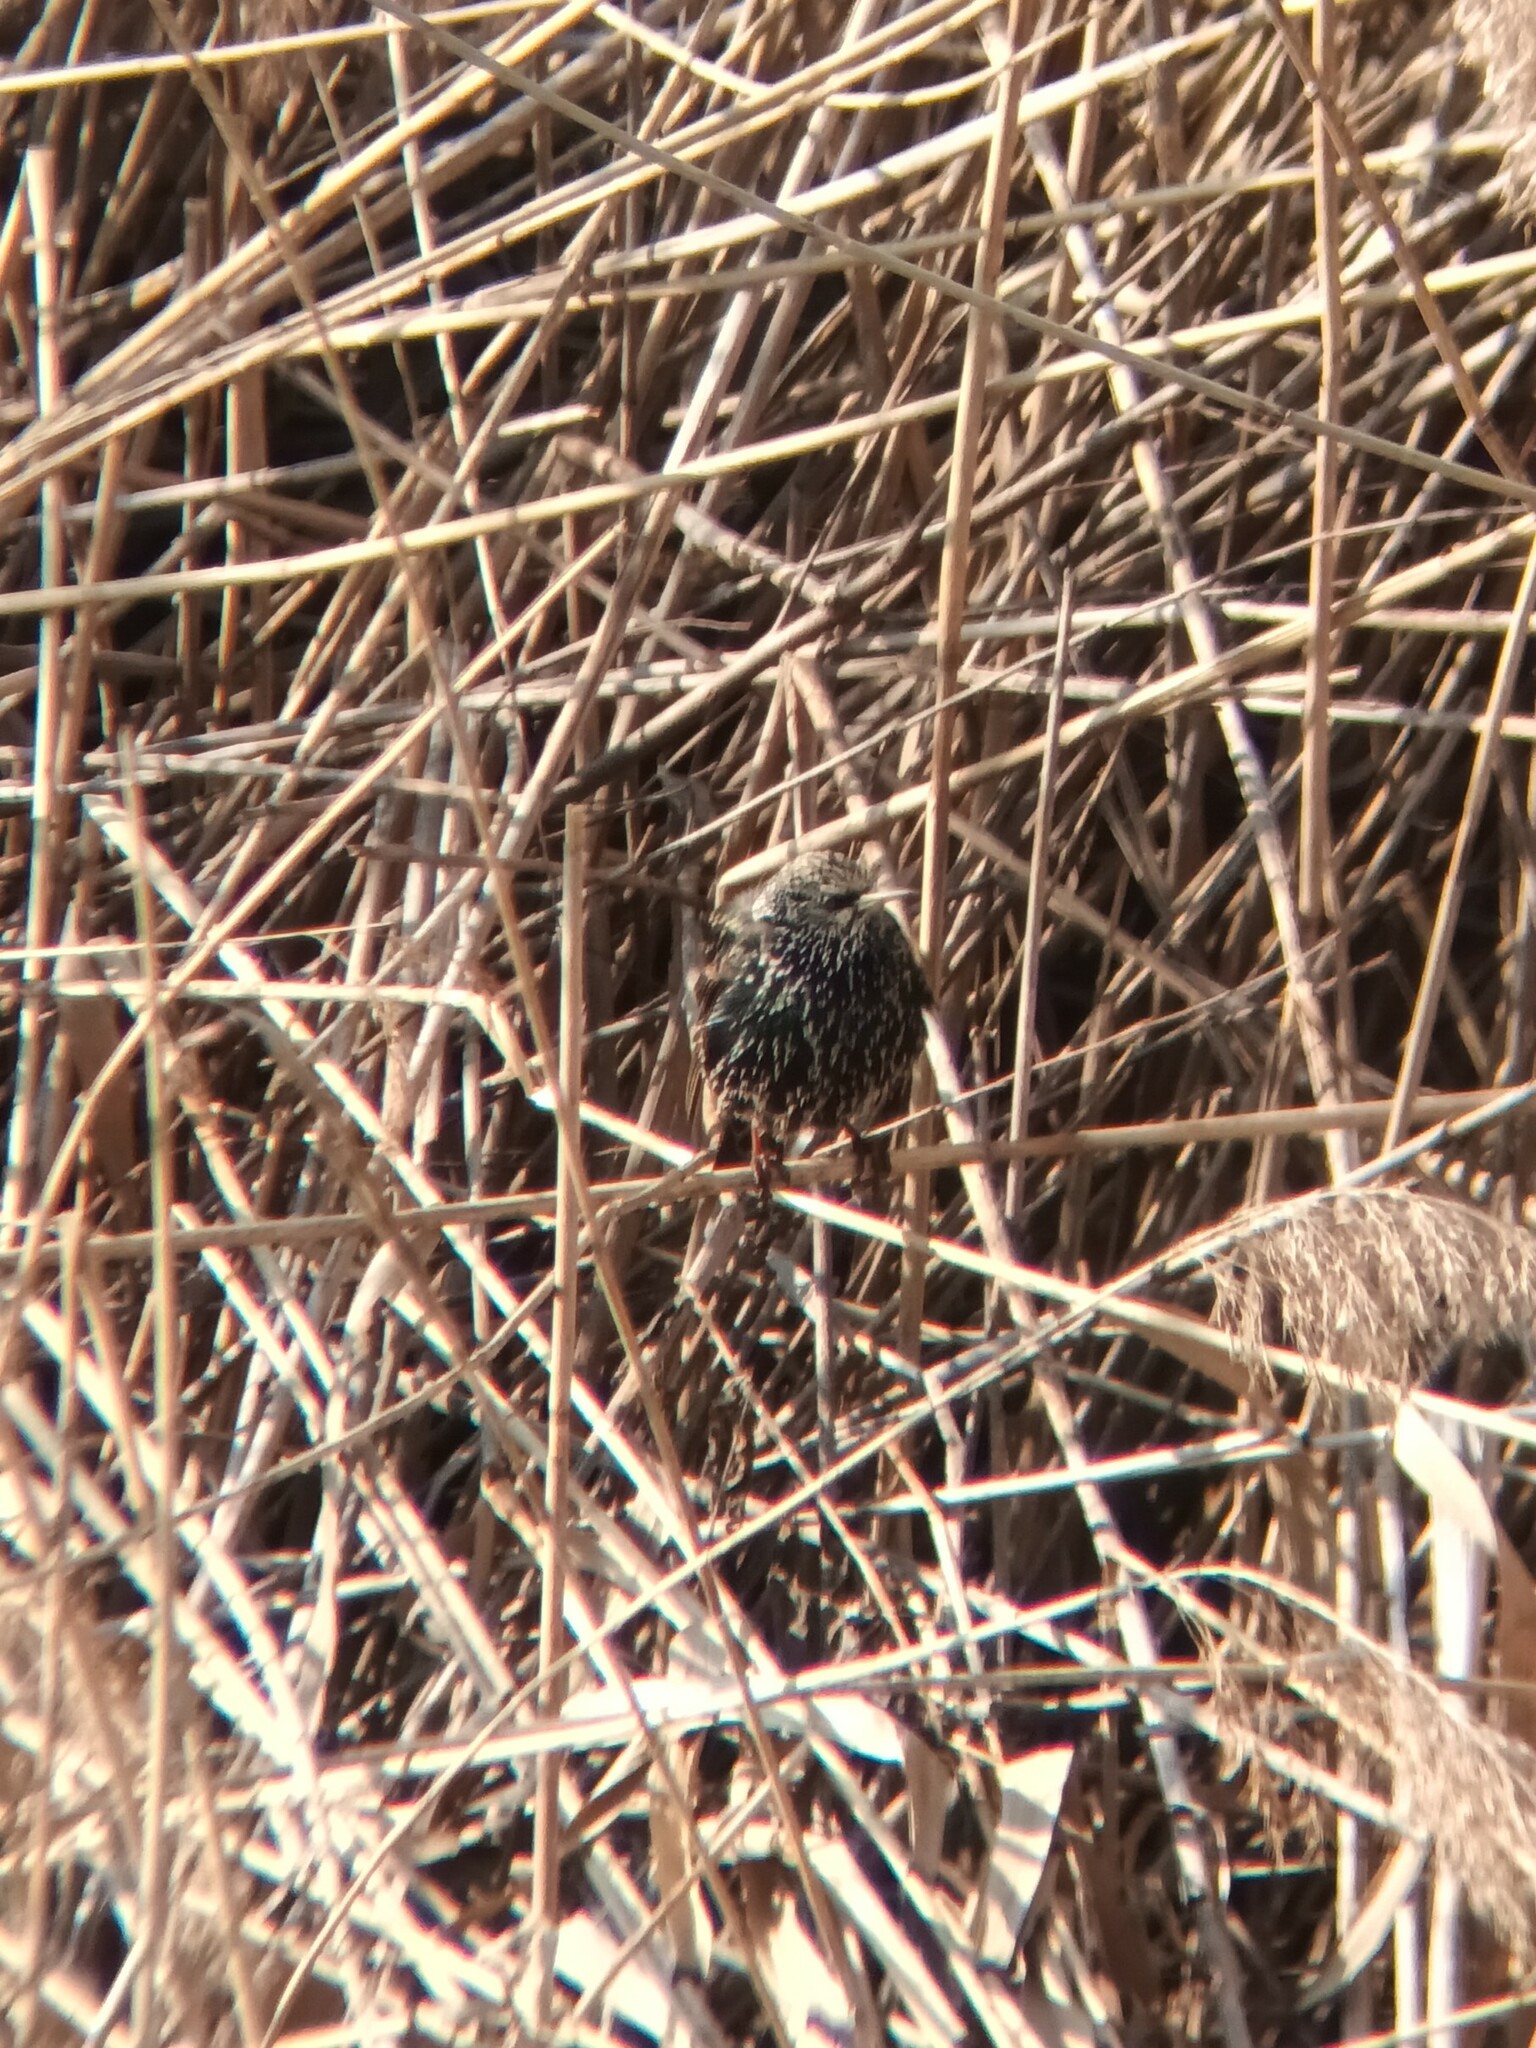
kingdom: Animalia
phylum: Chordata
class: Aves
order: Passeriformes
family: Sturnidae
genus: Sturnus
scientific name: Sturnus vulgaris
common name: Common starling
